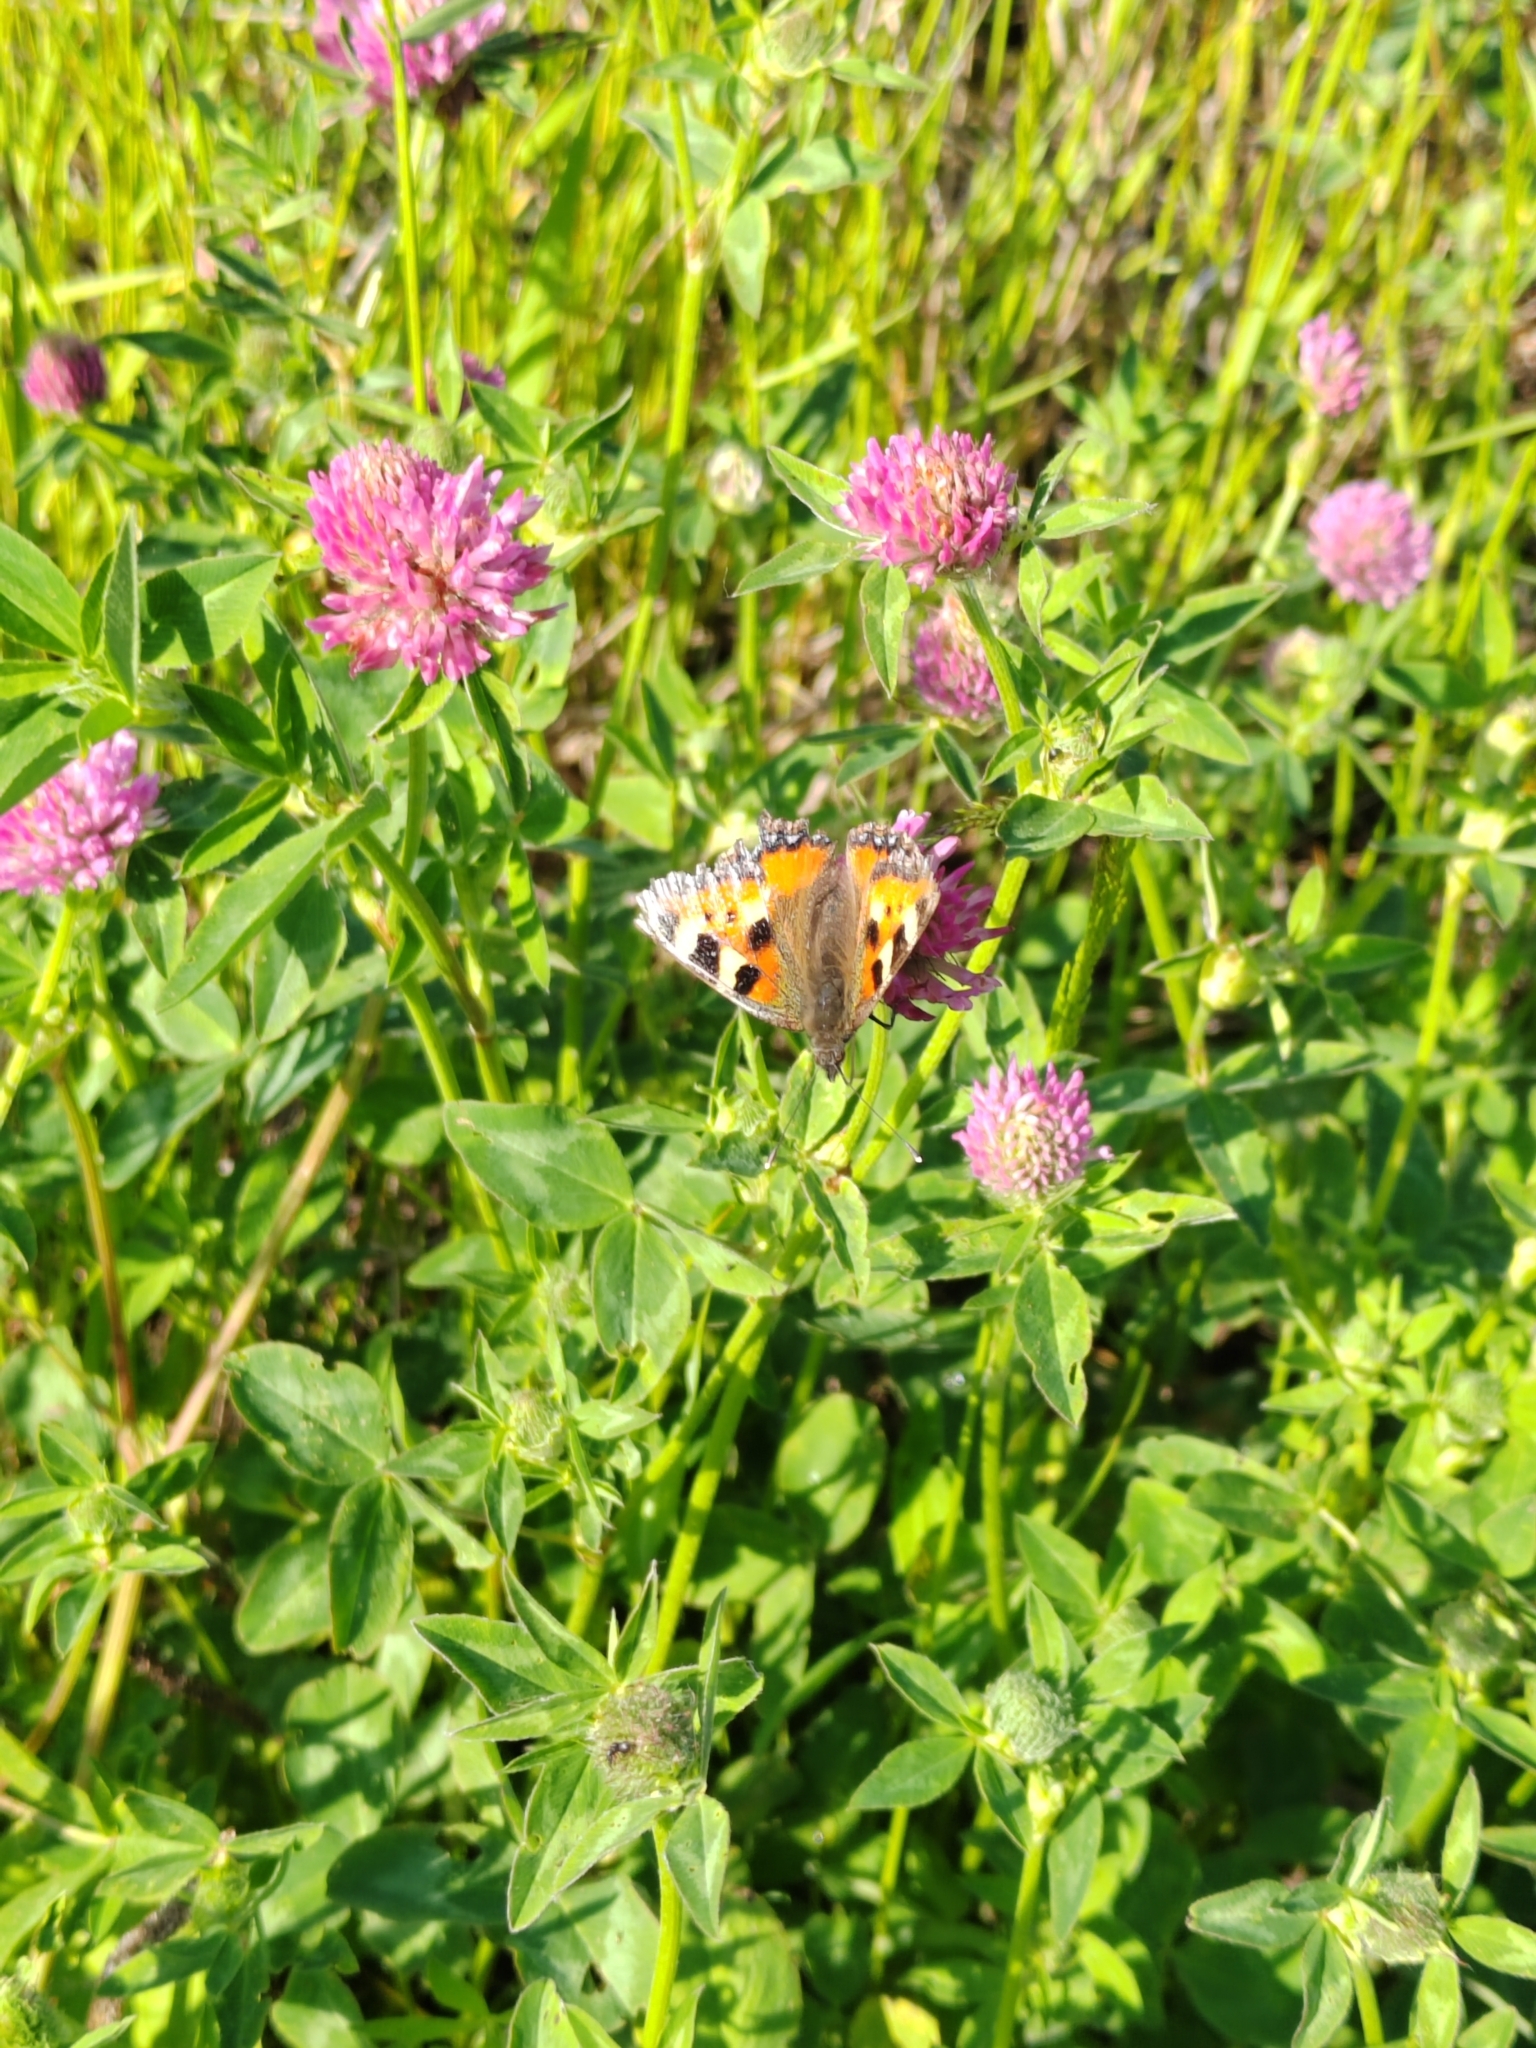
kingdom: Animalia
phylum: Arthropoda
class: Insecta
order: Lepidoptera
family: Nymphalidae
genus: Aglais
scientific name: Aglais urticae
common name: Small tortoiseshell
